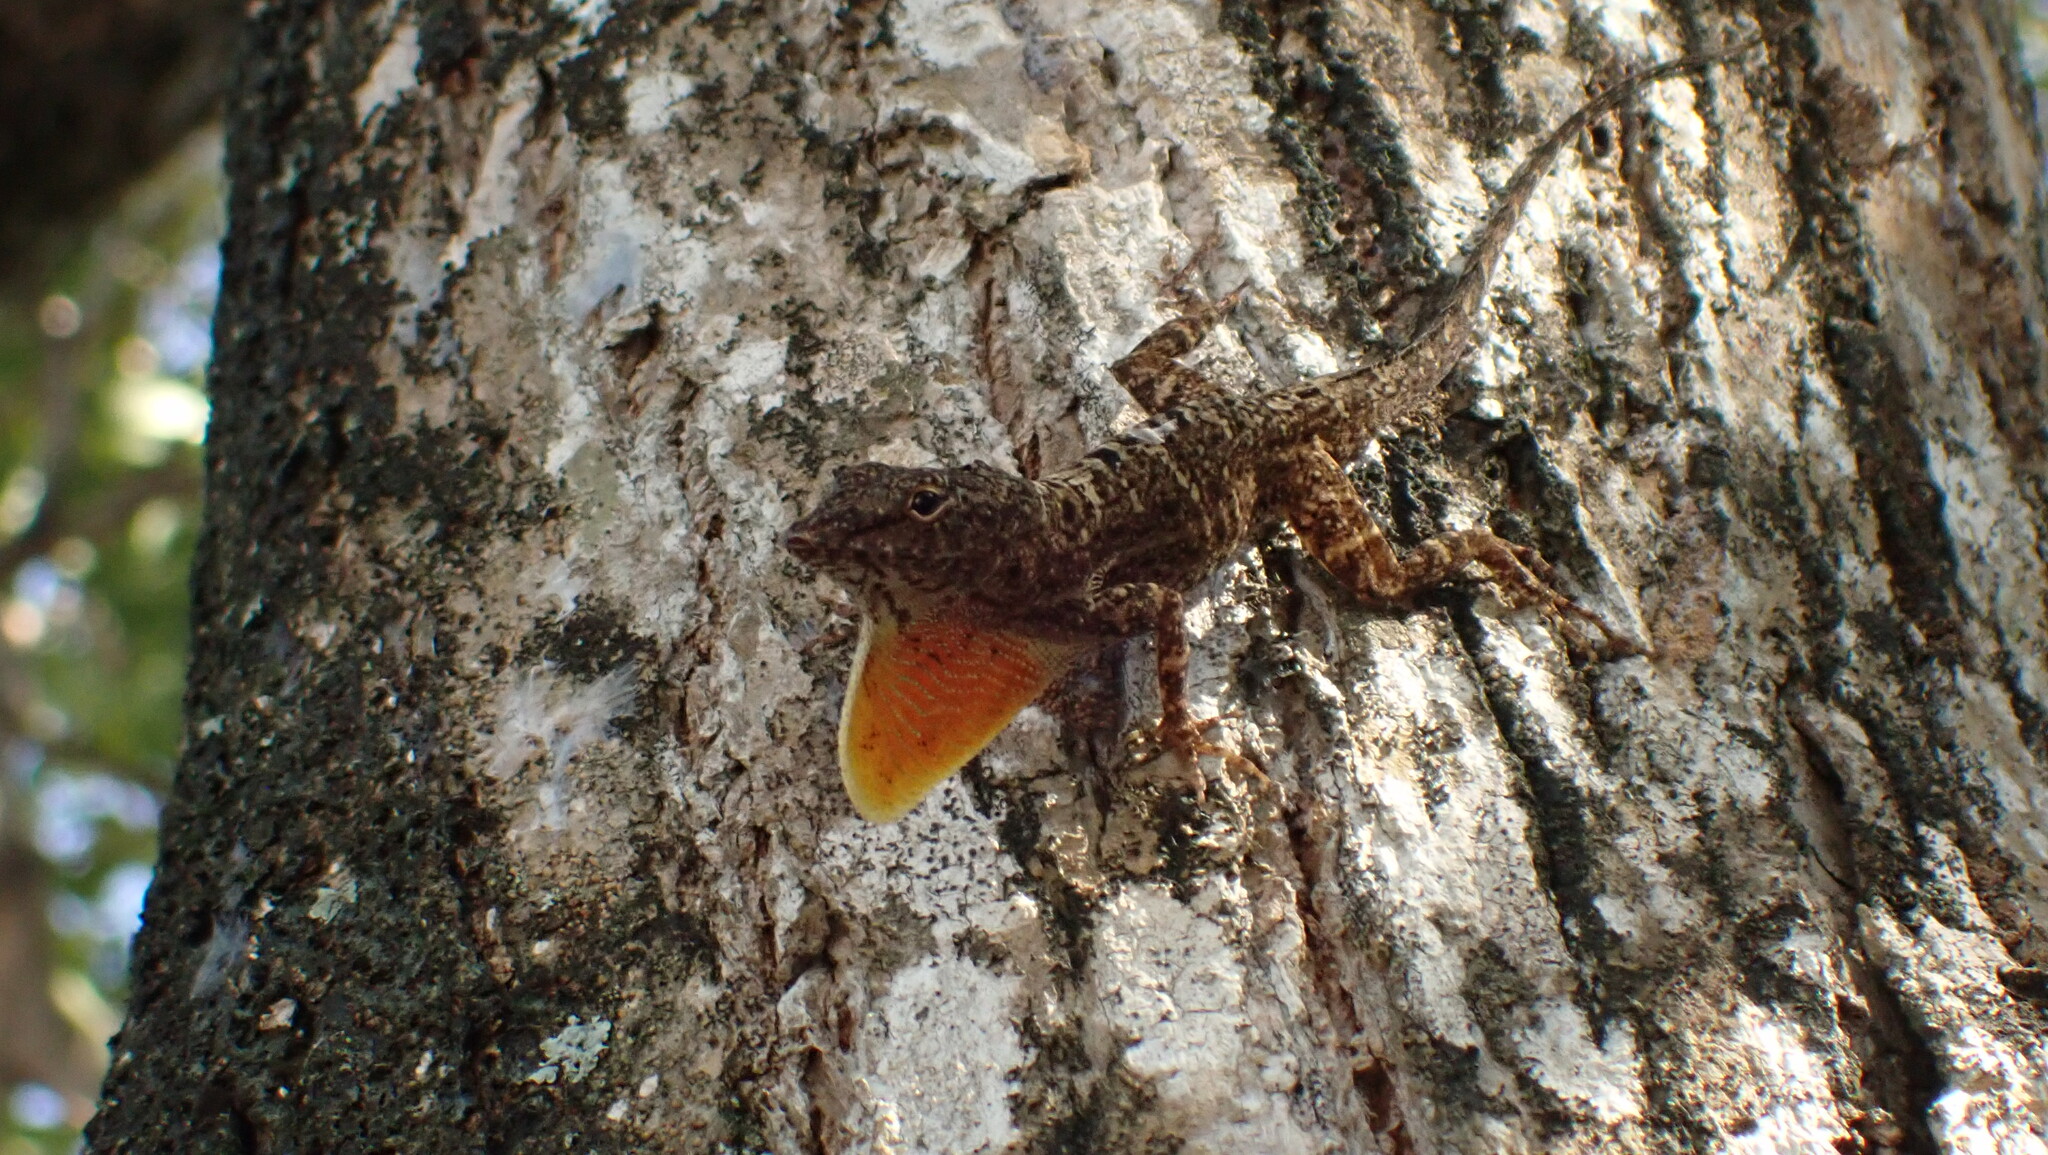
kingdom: Animalia
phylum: Chordata
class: Squamata
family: Dactyloidae
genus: Anolis
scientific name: Anolis stratulus
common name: Banded anole
